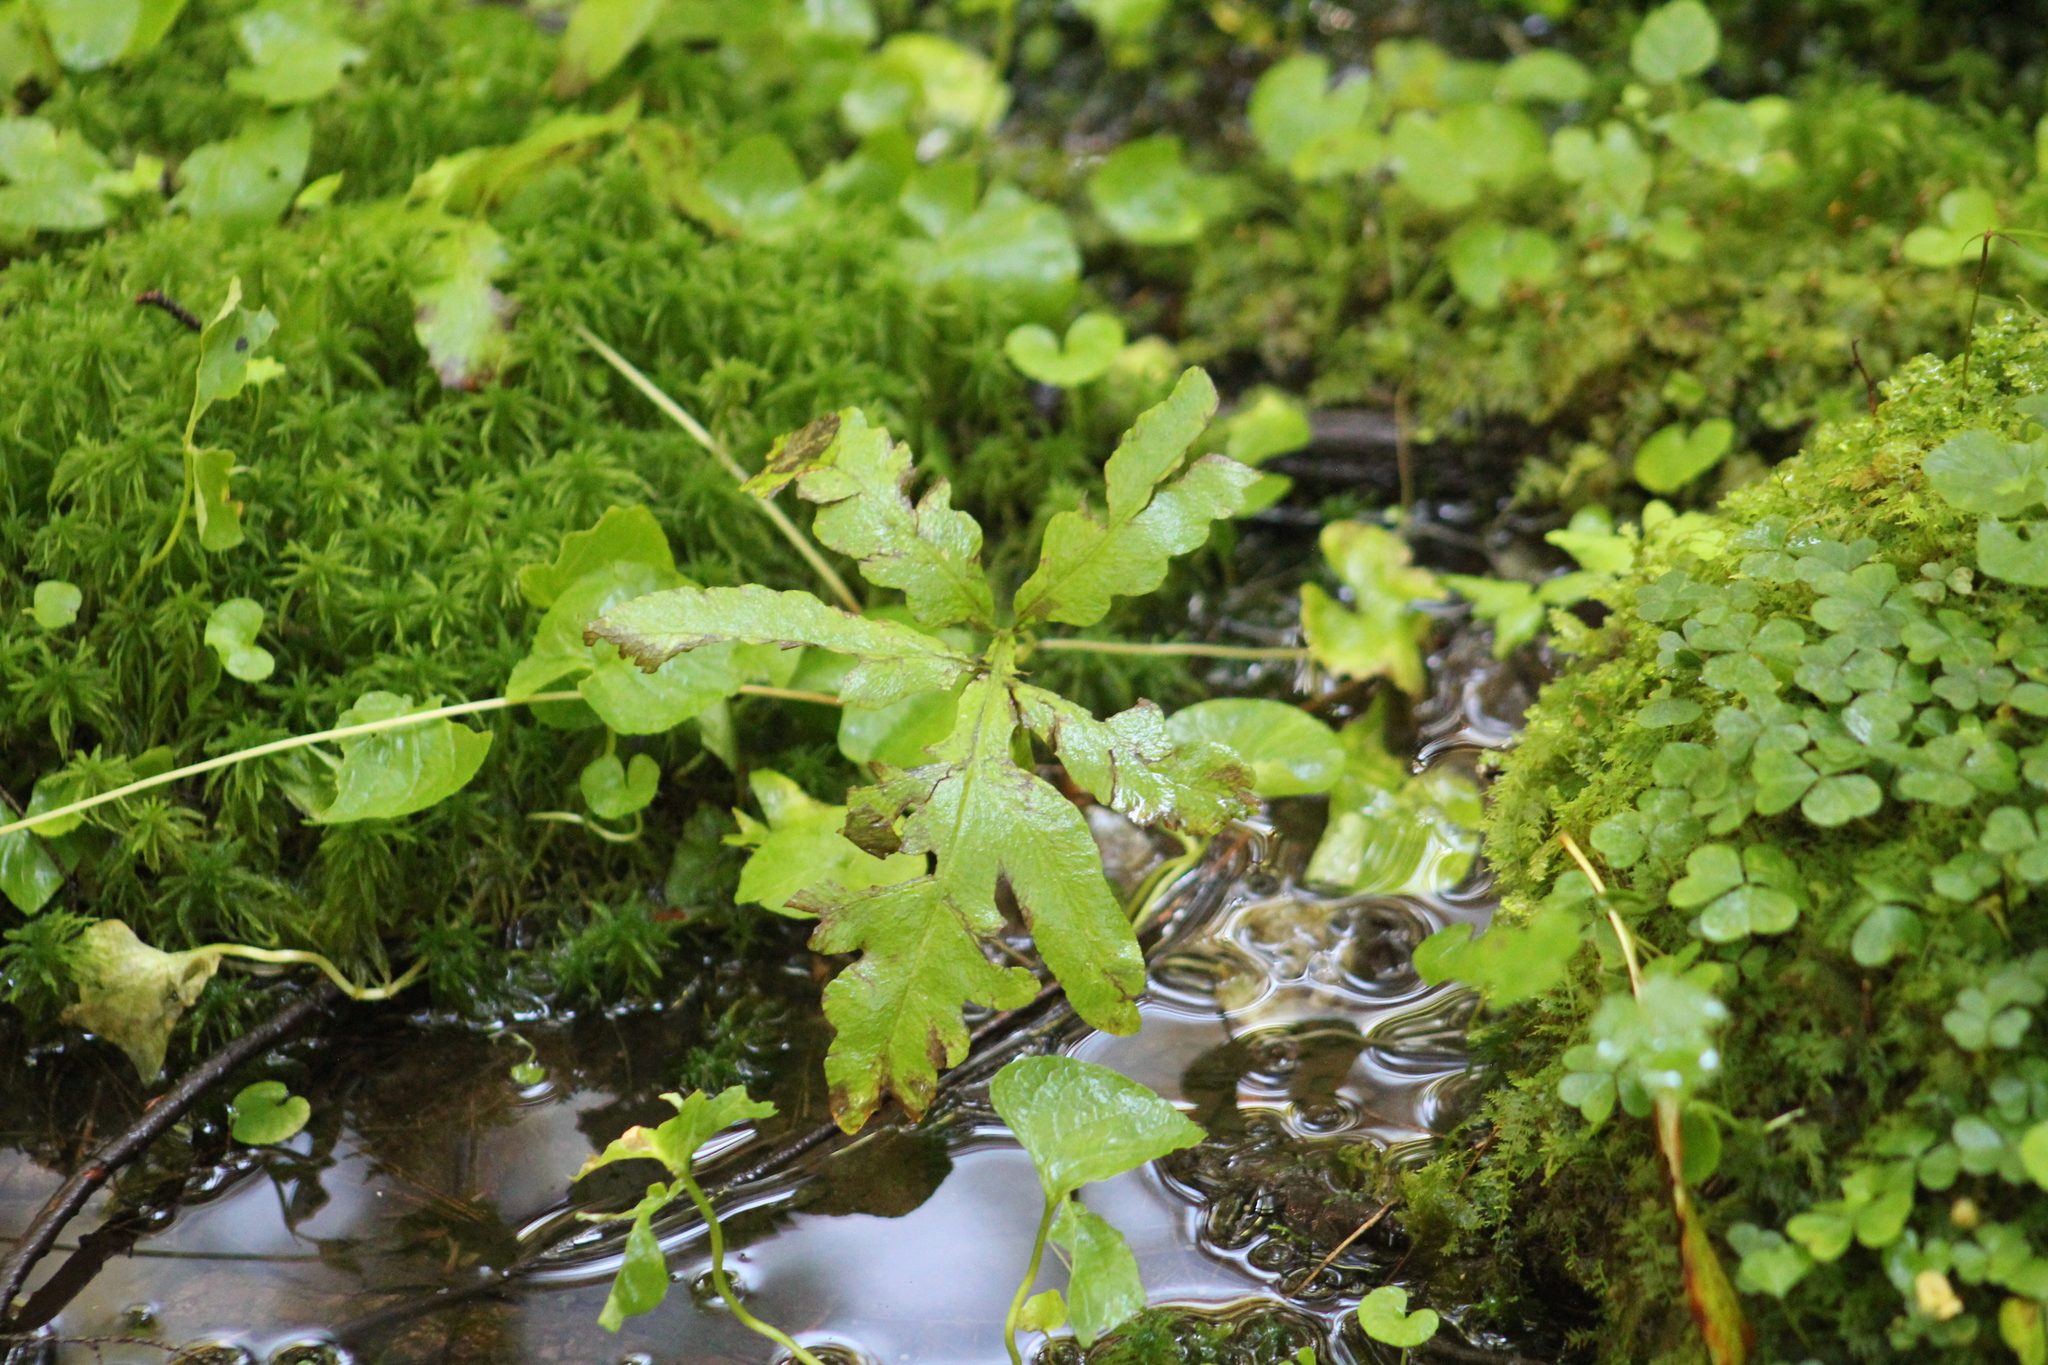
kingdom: Plantae
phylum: Tracheophyta
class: Polypodiopsida
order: Polypodiales
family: Onocleaceae
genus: Onoclea
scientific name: Onoclea sensibilis
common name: Sensitive fern
